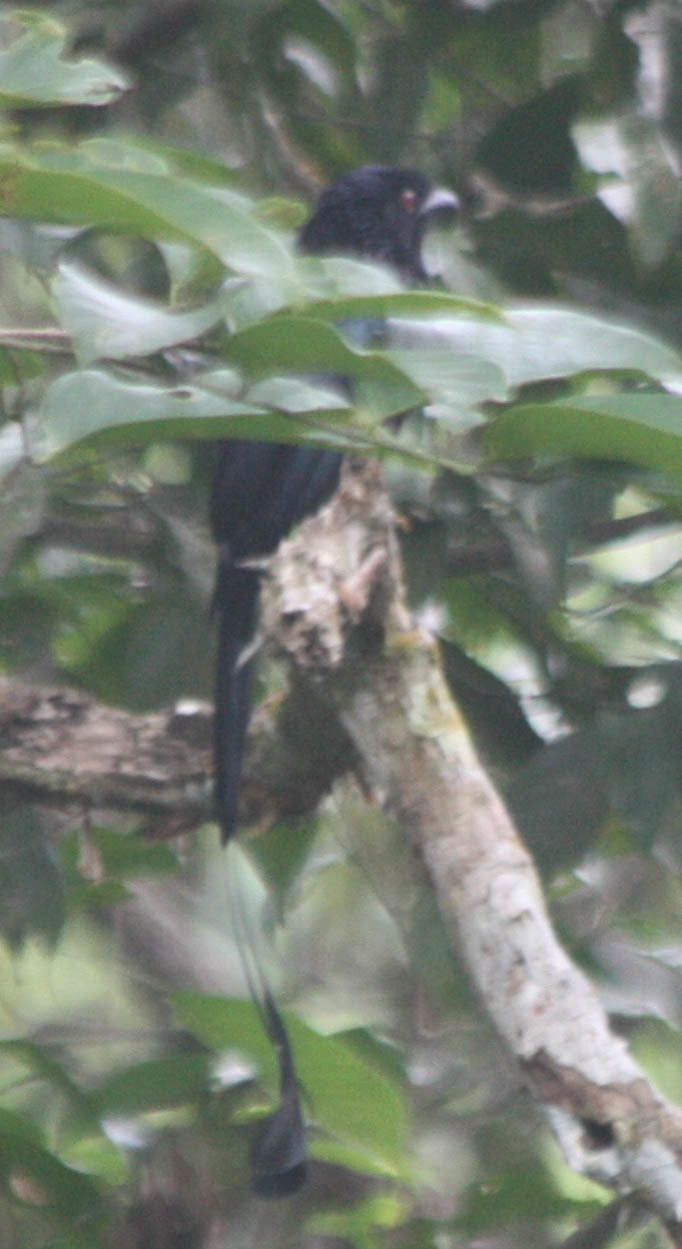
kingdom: Animalia
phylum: Chordata
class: Aves
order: Passeriformes
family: Dicruridae
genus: Dicrurus
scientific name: Dicrurus paradiseus
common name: Greater racket-tailed drongo
